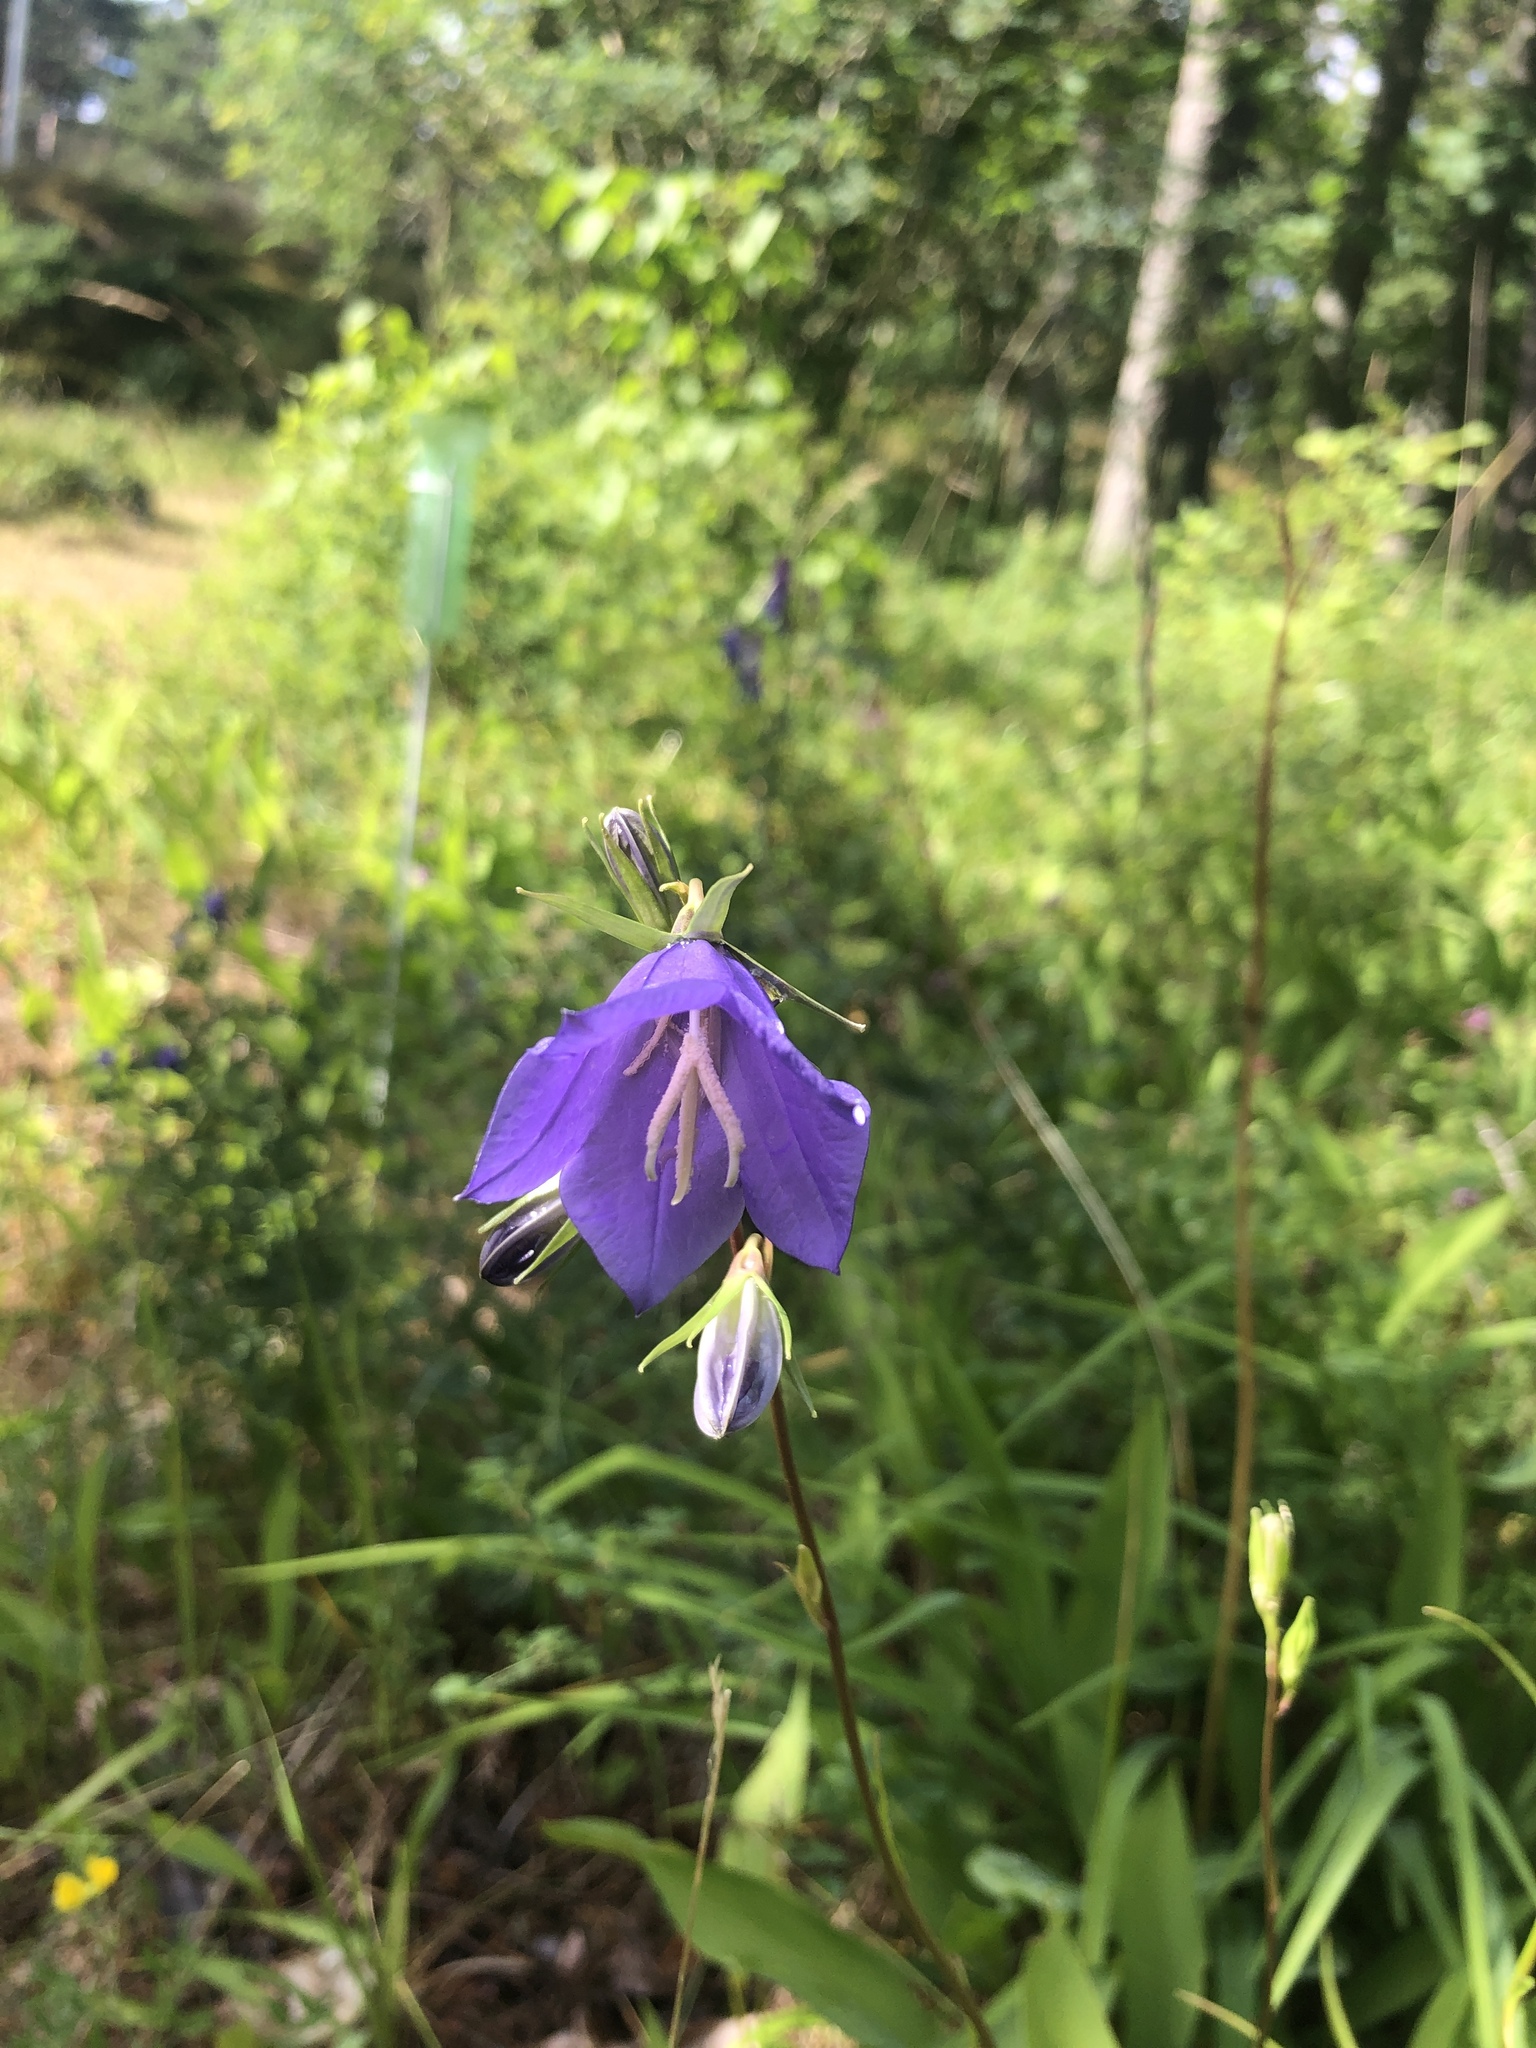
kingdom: Plantae
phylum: Tracheophyta
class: Magnoliopsida
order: Asterales
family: Campanulaceae
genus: Campanula
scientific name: Campanula persicifolia
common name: Peach-leaved bellflower
